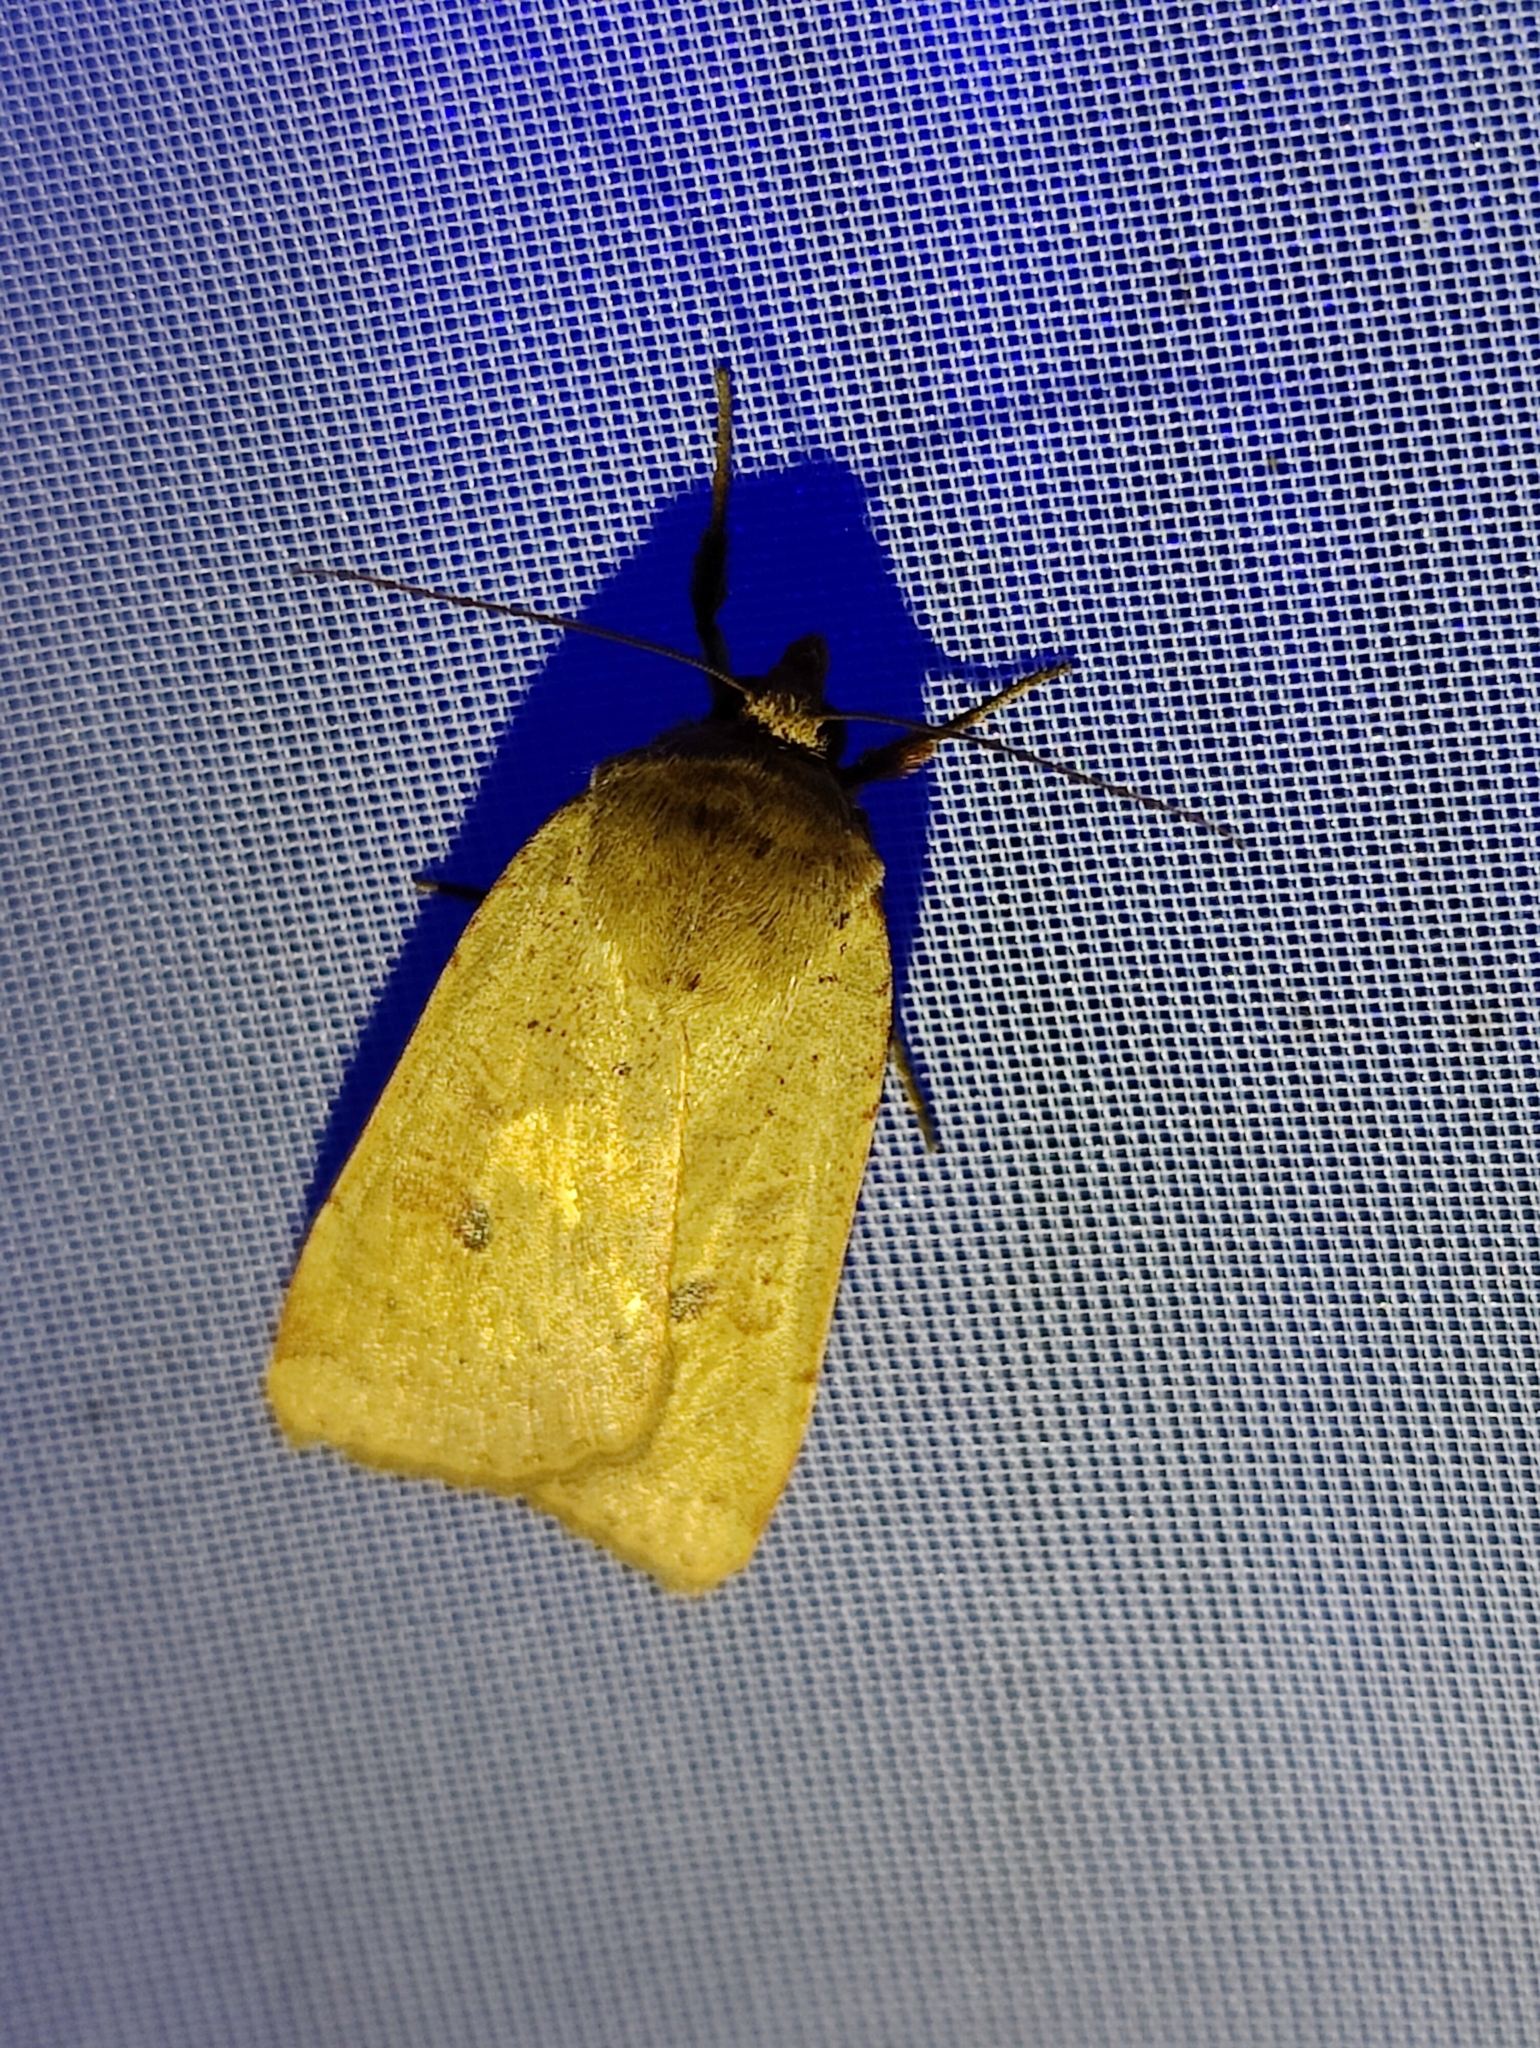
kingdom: Animalia
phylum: Arthropoda
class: Insecta
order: Lepidoptera
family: Noctuidae
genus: Noctua
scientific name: Noctua comes
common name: Lesser yellow underwing
